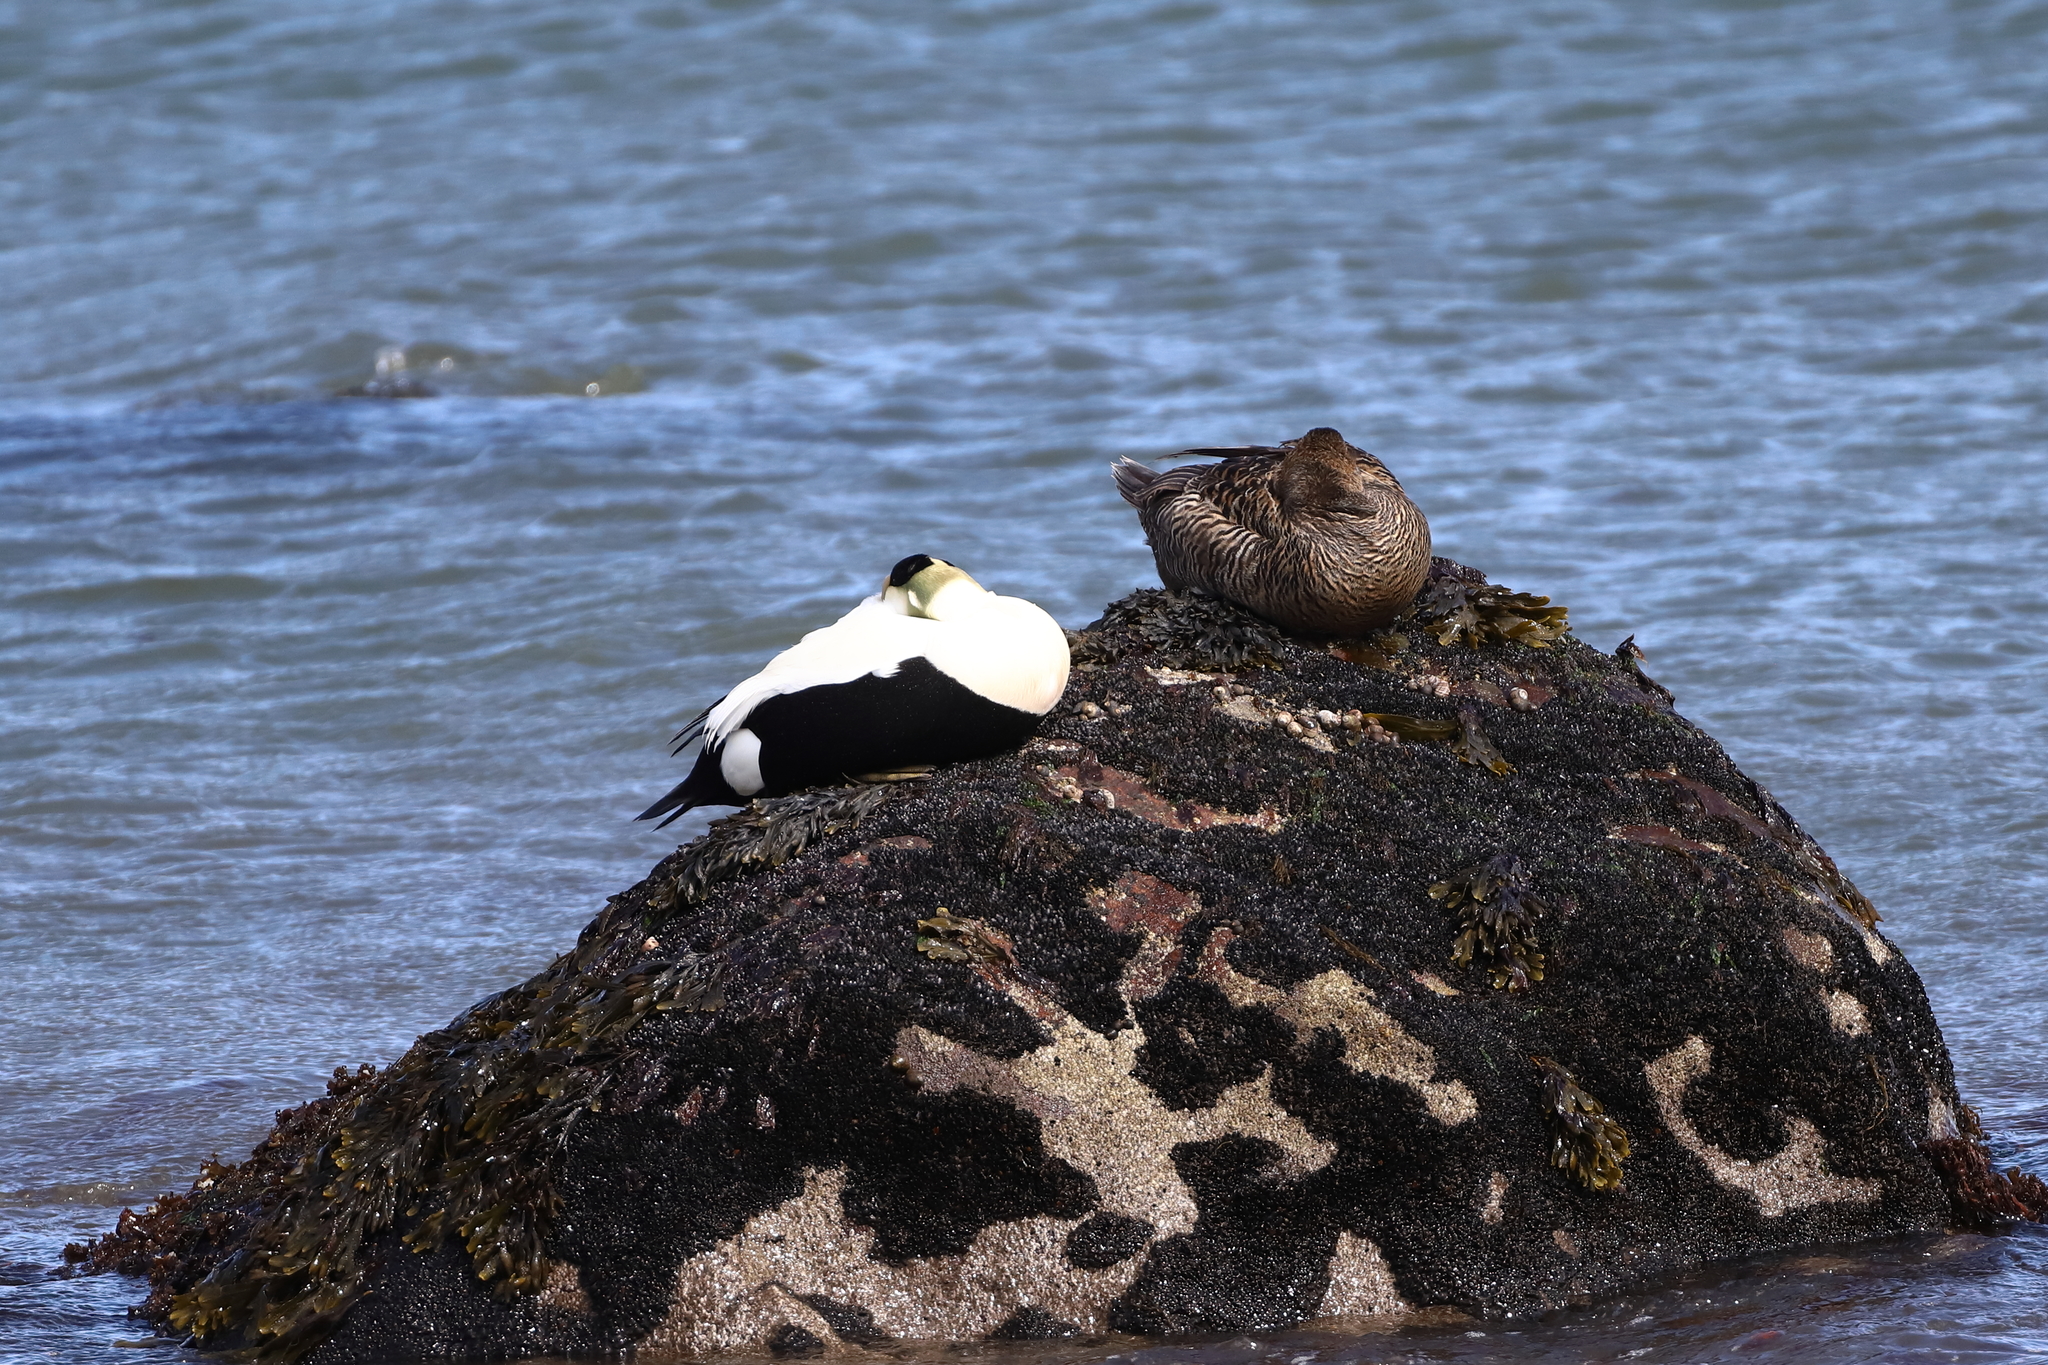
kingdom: Animalia
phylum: Chordata
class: Aves
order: Anseriformes
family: Anatidae
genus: Somateria
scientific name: Somateria mollissima
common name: Common eider
